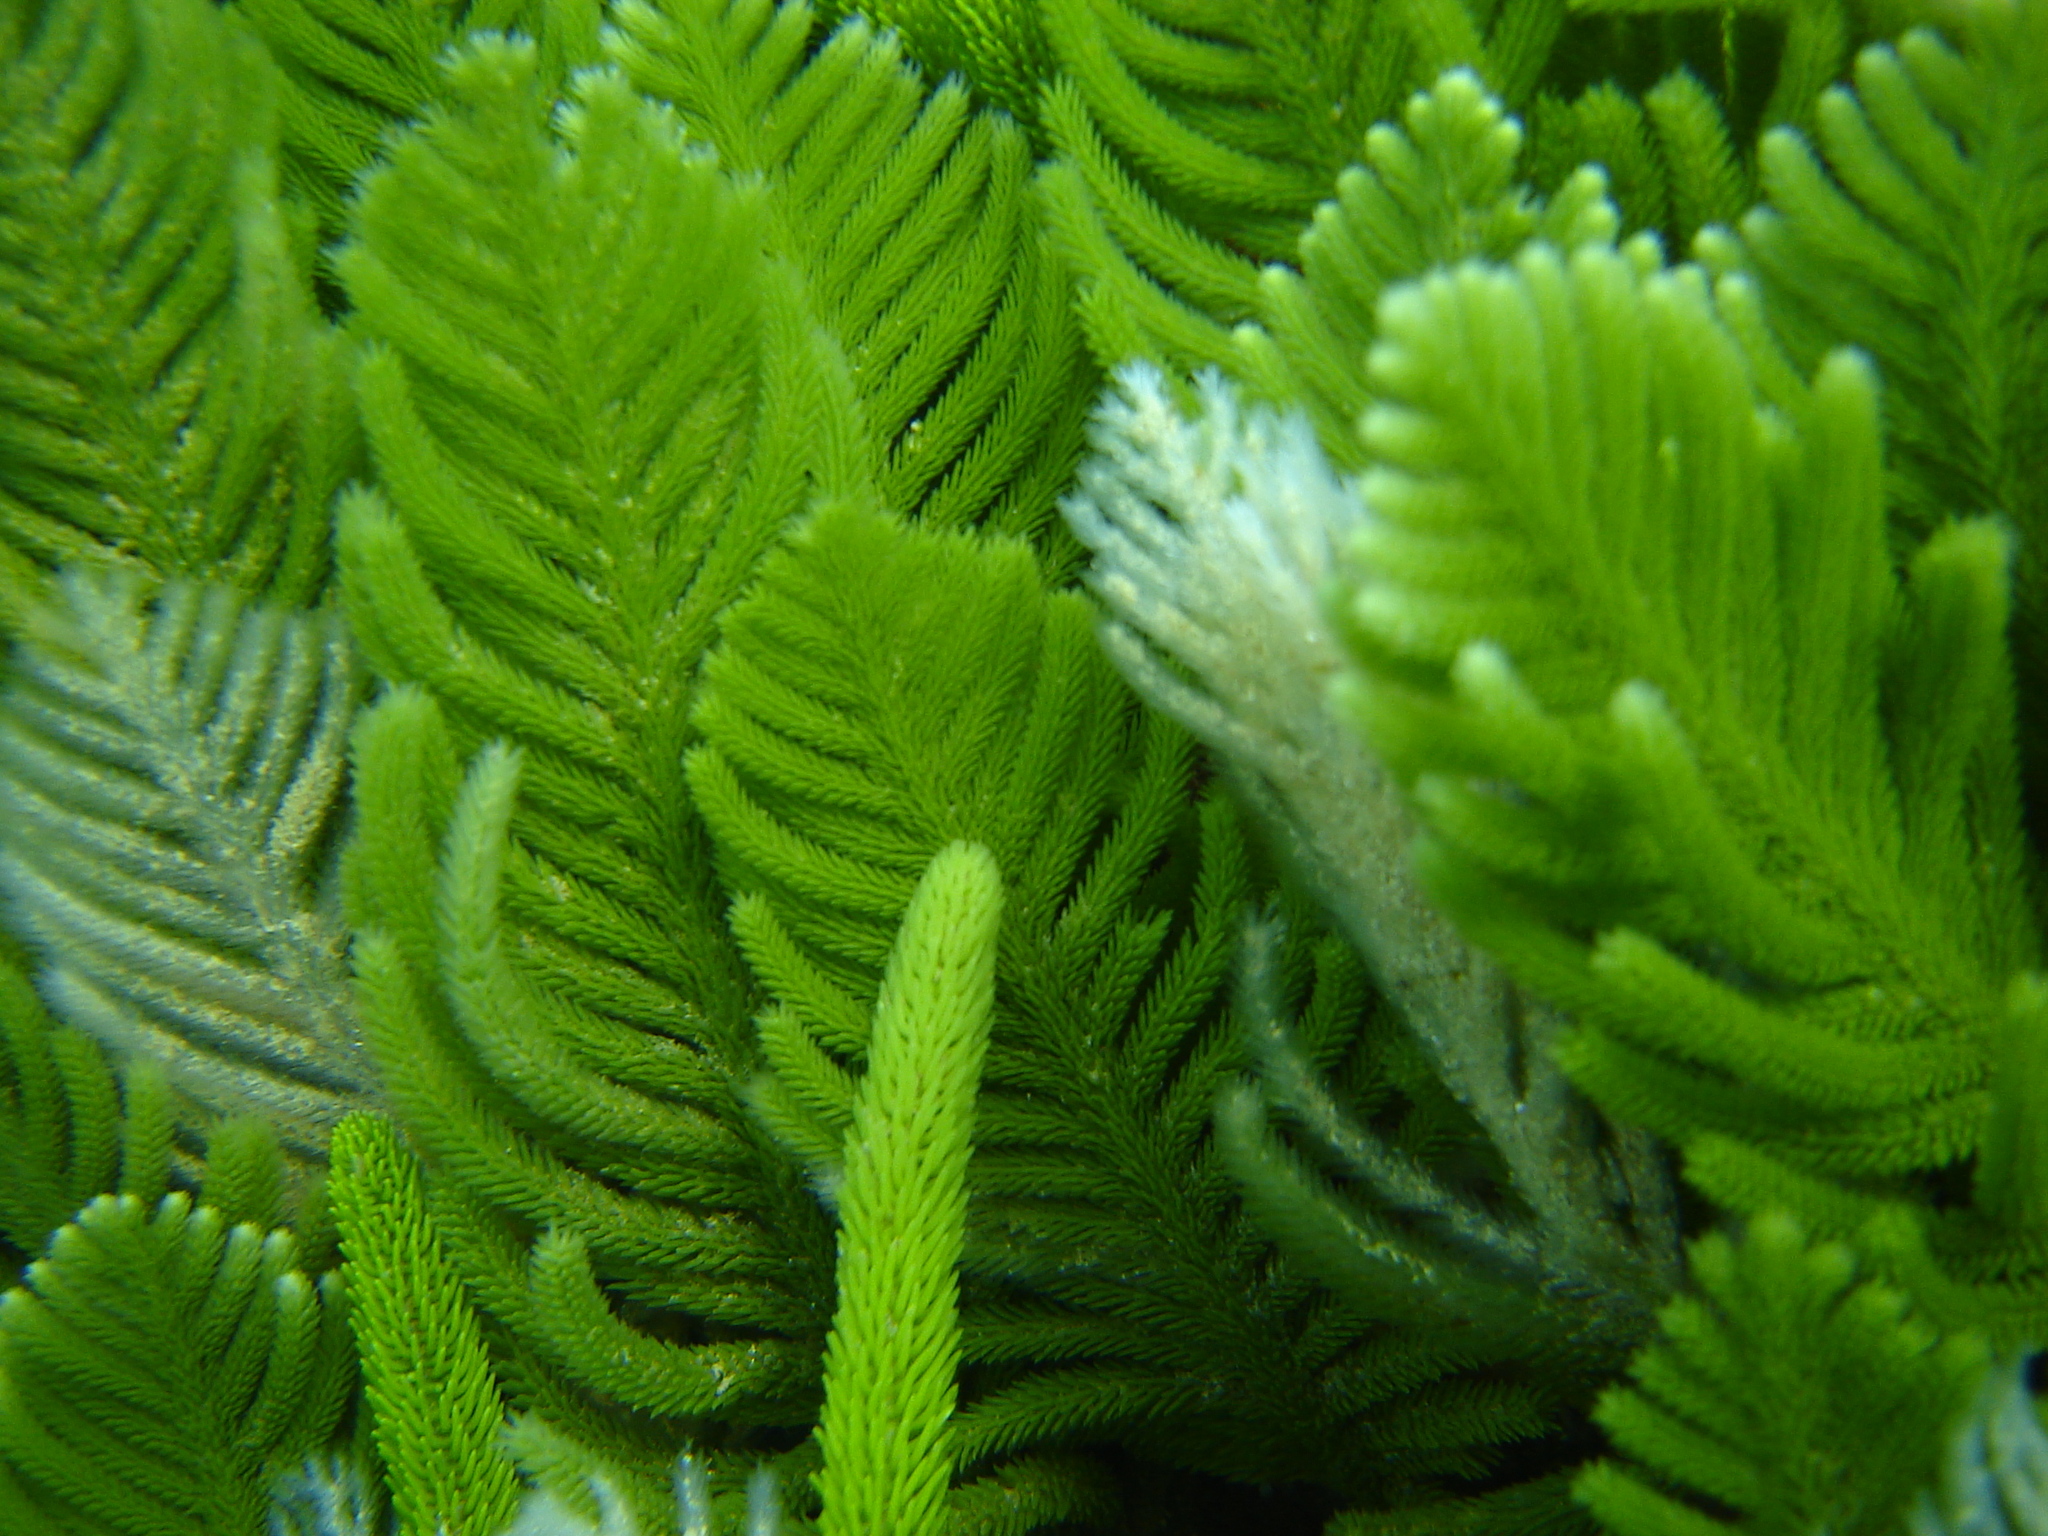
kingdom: Plantae
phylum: Chlorophyta
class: Ulvophyceae
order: Bryopsidales
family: Caulerpaceae
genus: Caulerpa
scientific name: Caulerpa
